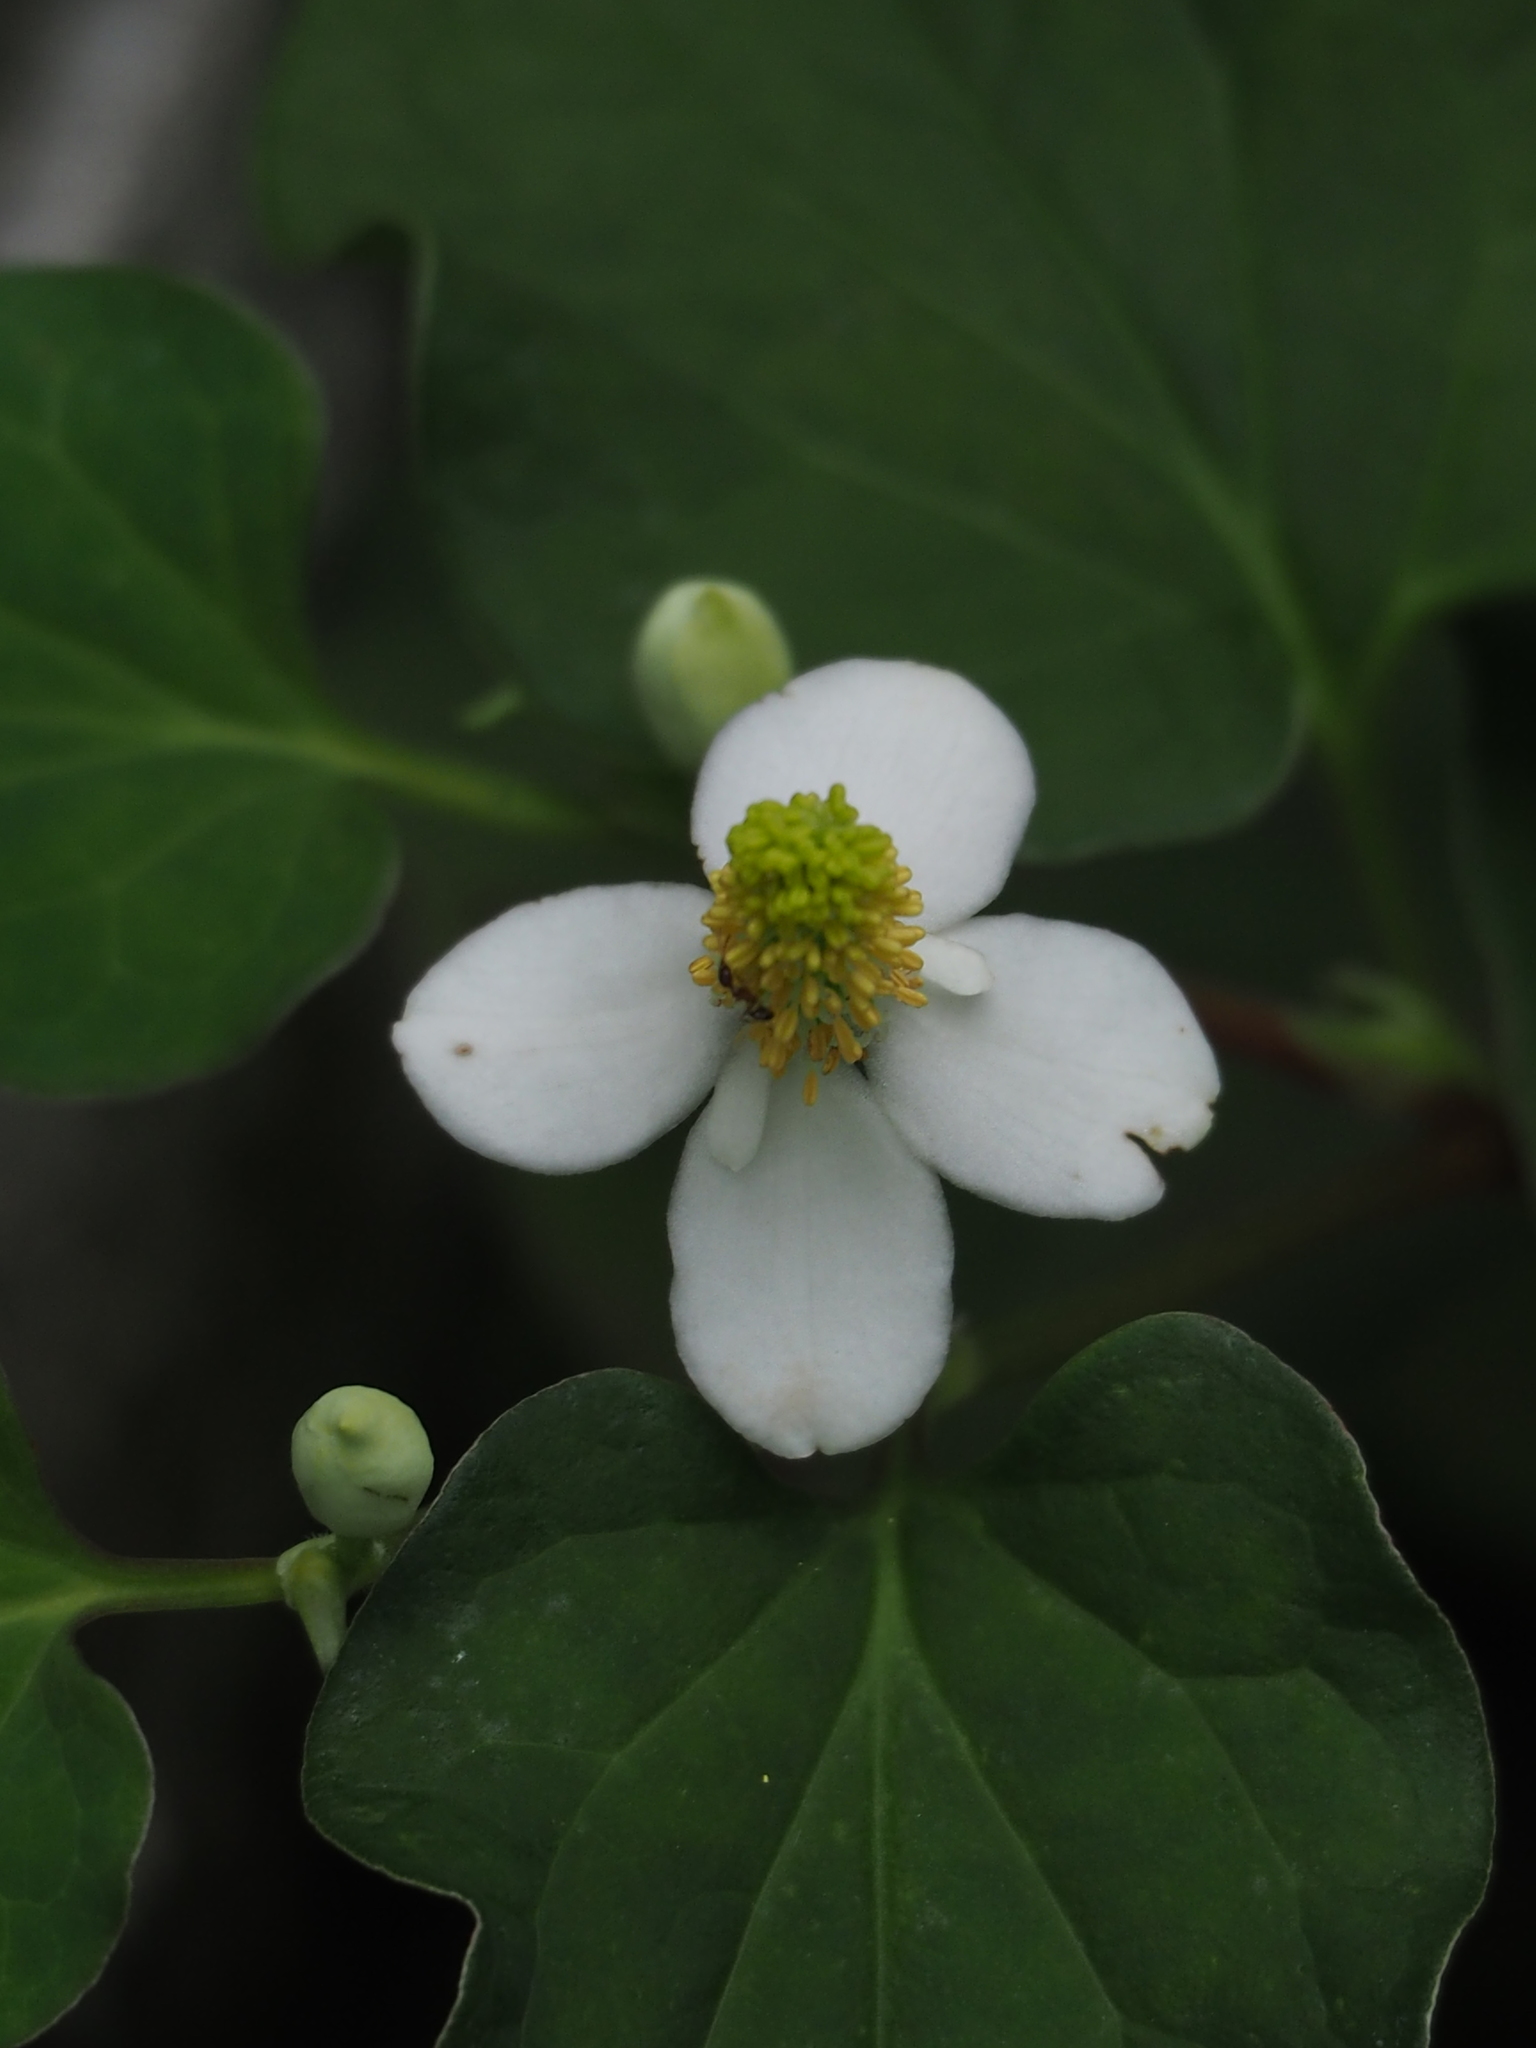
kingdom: Plantae
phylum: Tracheophyta
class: Magnoliopsida
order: Piperales
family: Saururaceae
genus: Houttuynia
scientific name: Houttuynia cordata
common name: Chameleon
